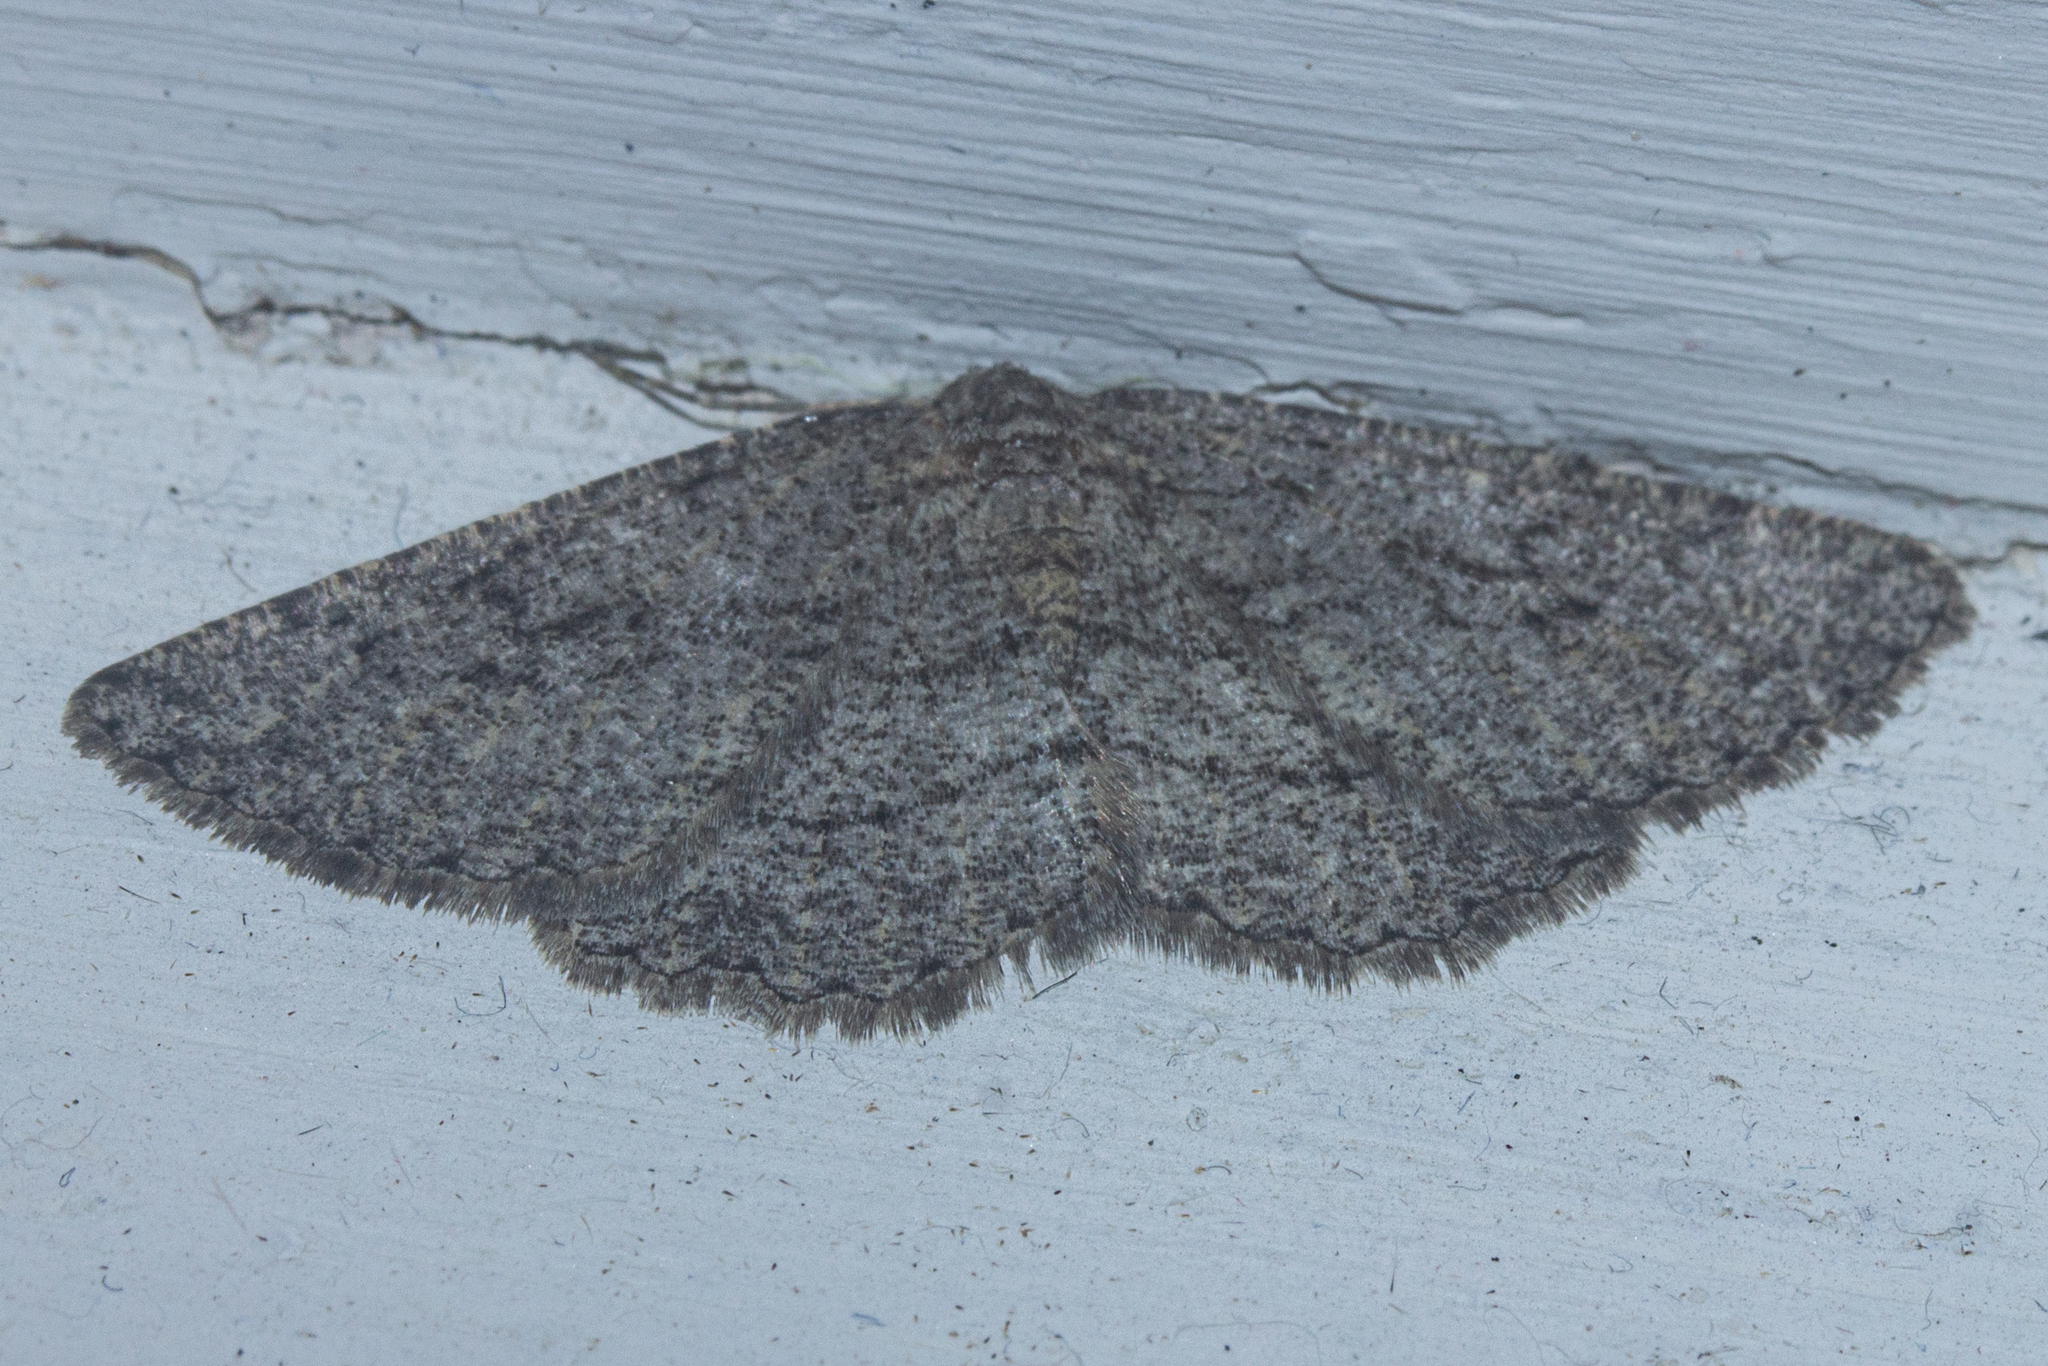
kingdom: Animalia
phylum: Arthropoda
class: Insecta
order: Lepidoptera
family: Geometridae
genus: Zermizinga
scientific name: Zermizinga indocilisaria
